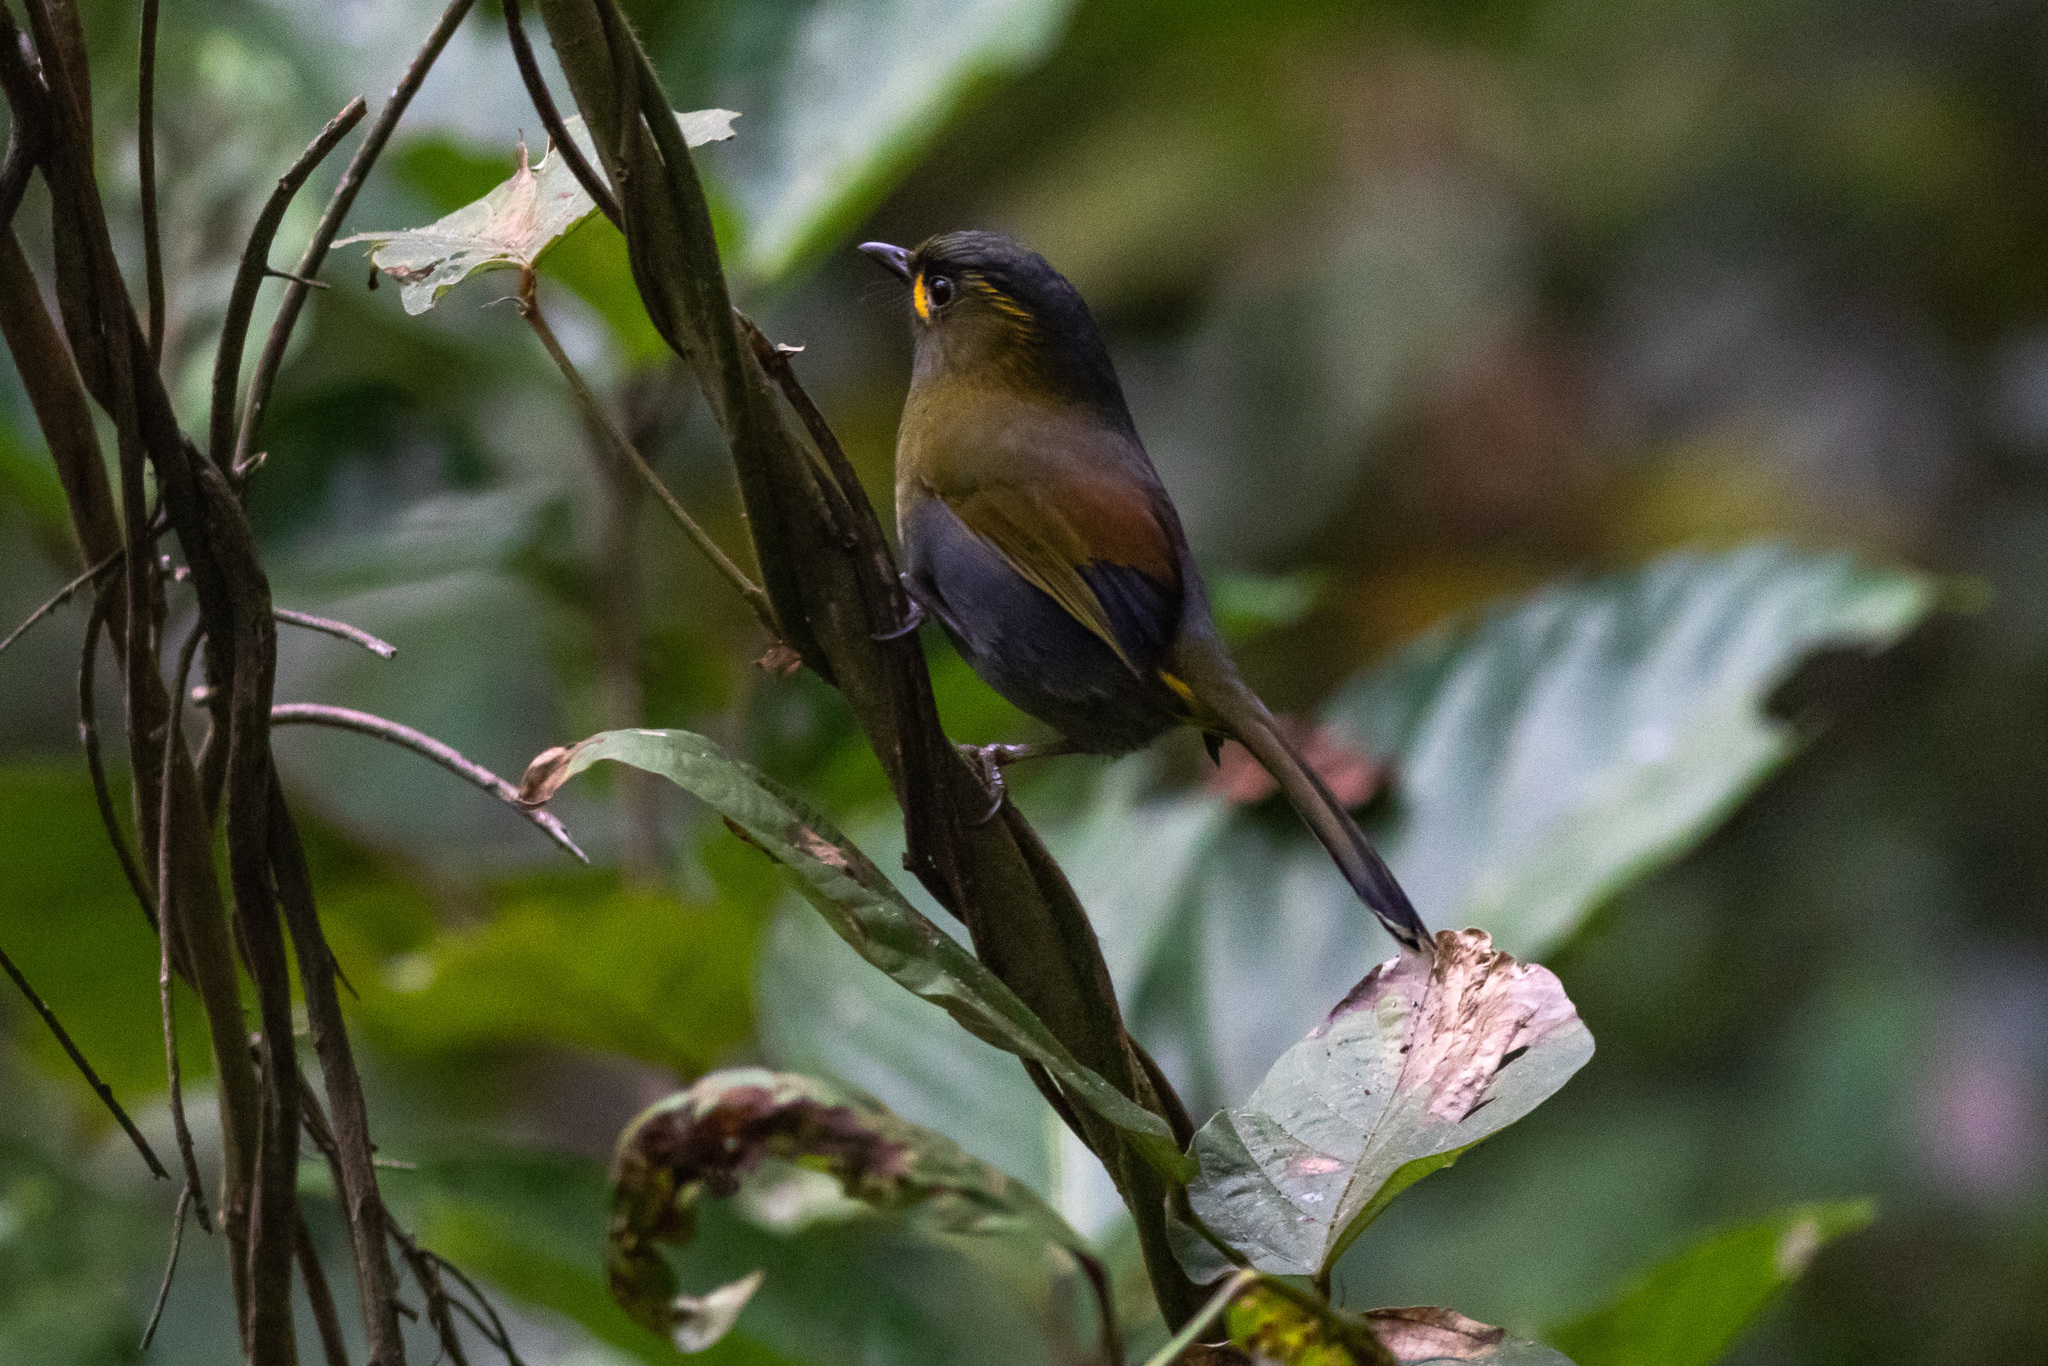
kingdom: Animalia
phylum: Chordata
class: Aves
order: Passeriformes
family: Leiothrichidae
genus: Liocichla
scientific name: Liocichla steerii
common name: Steere's liocichla
